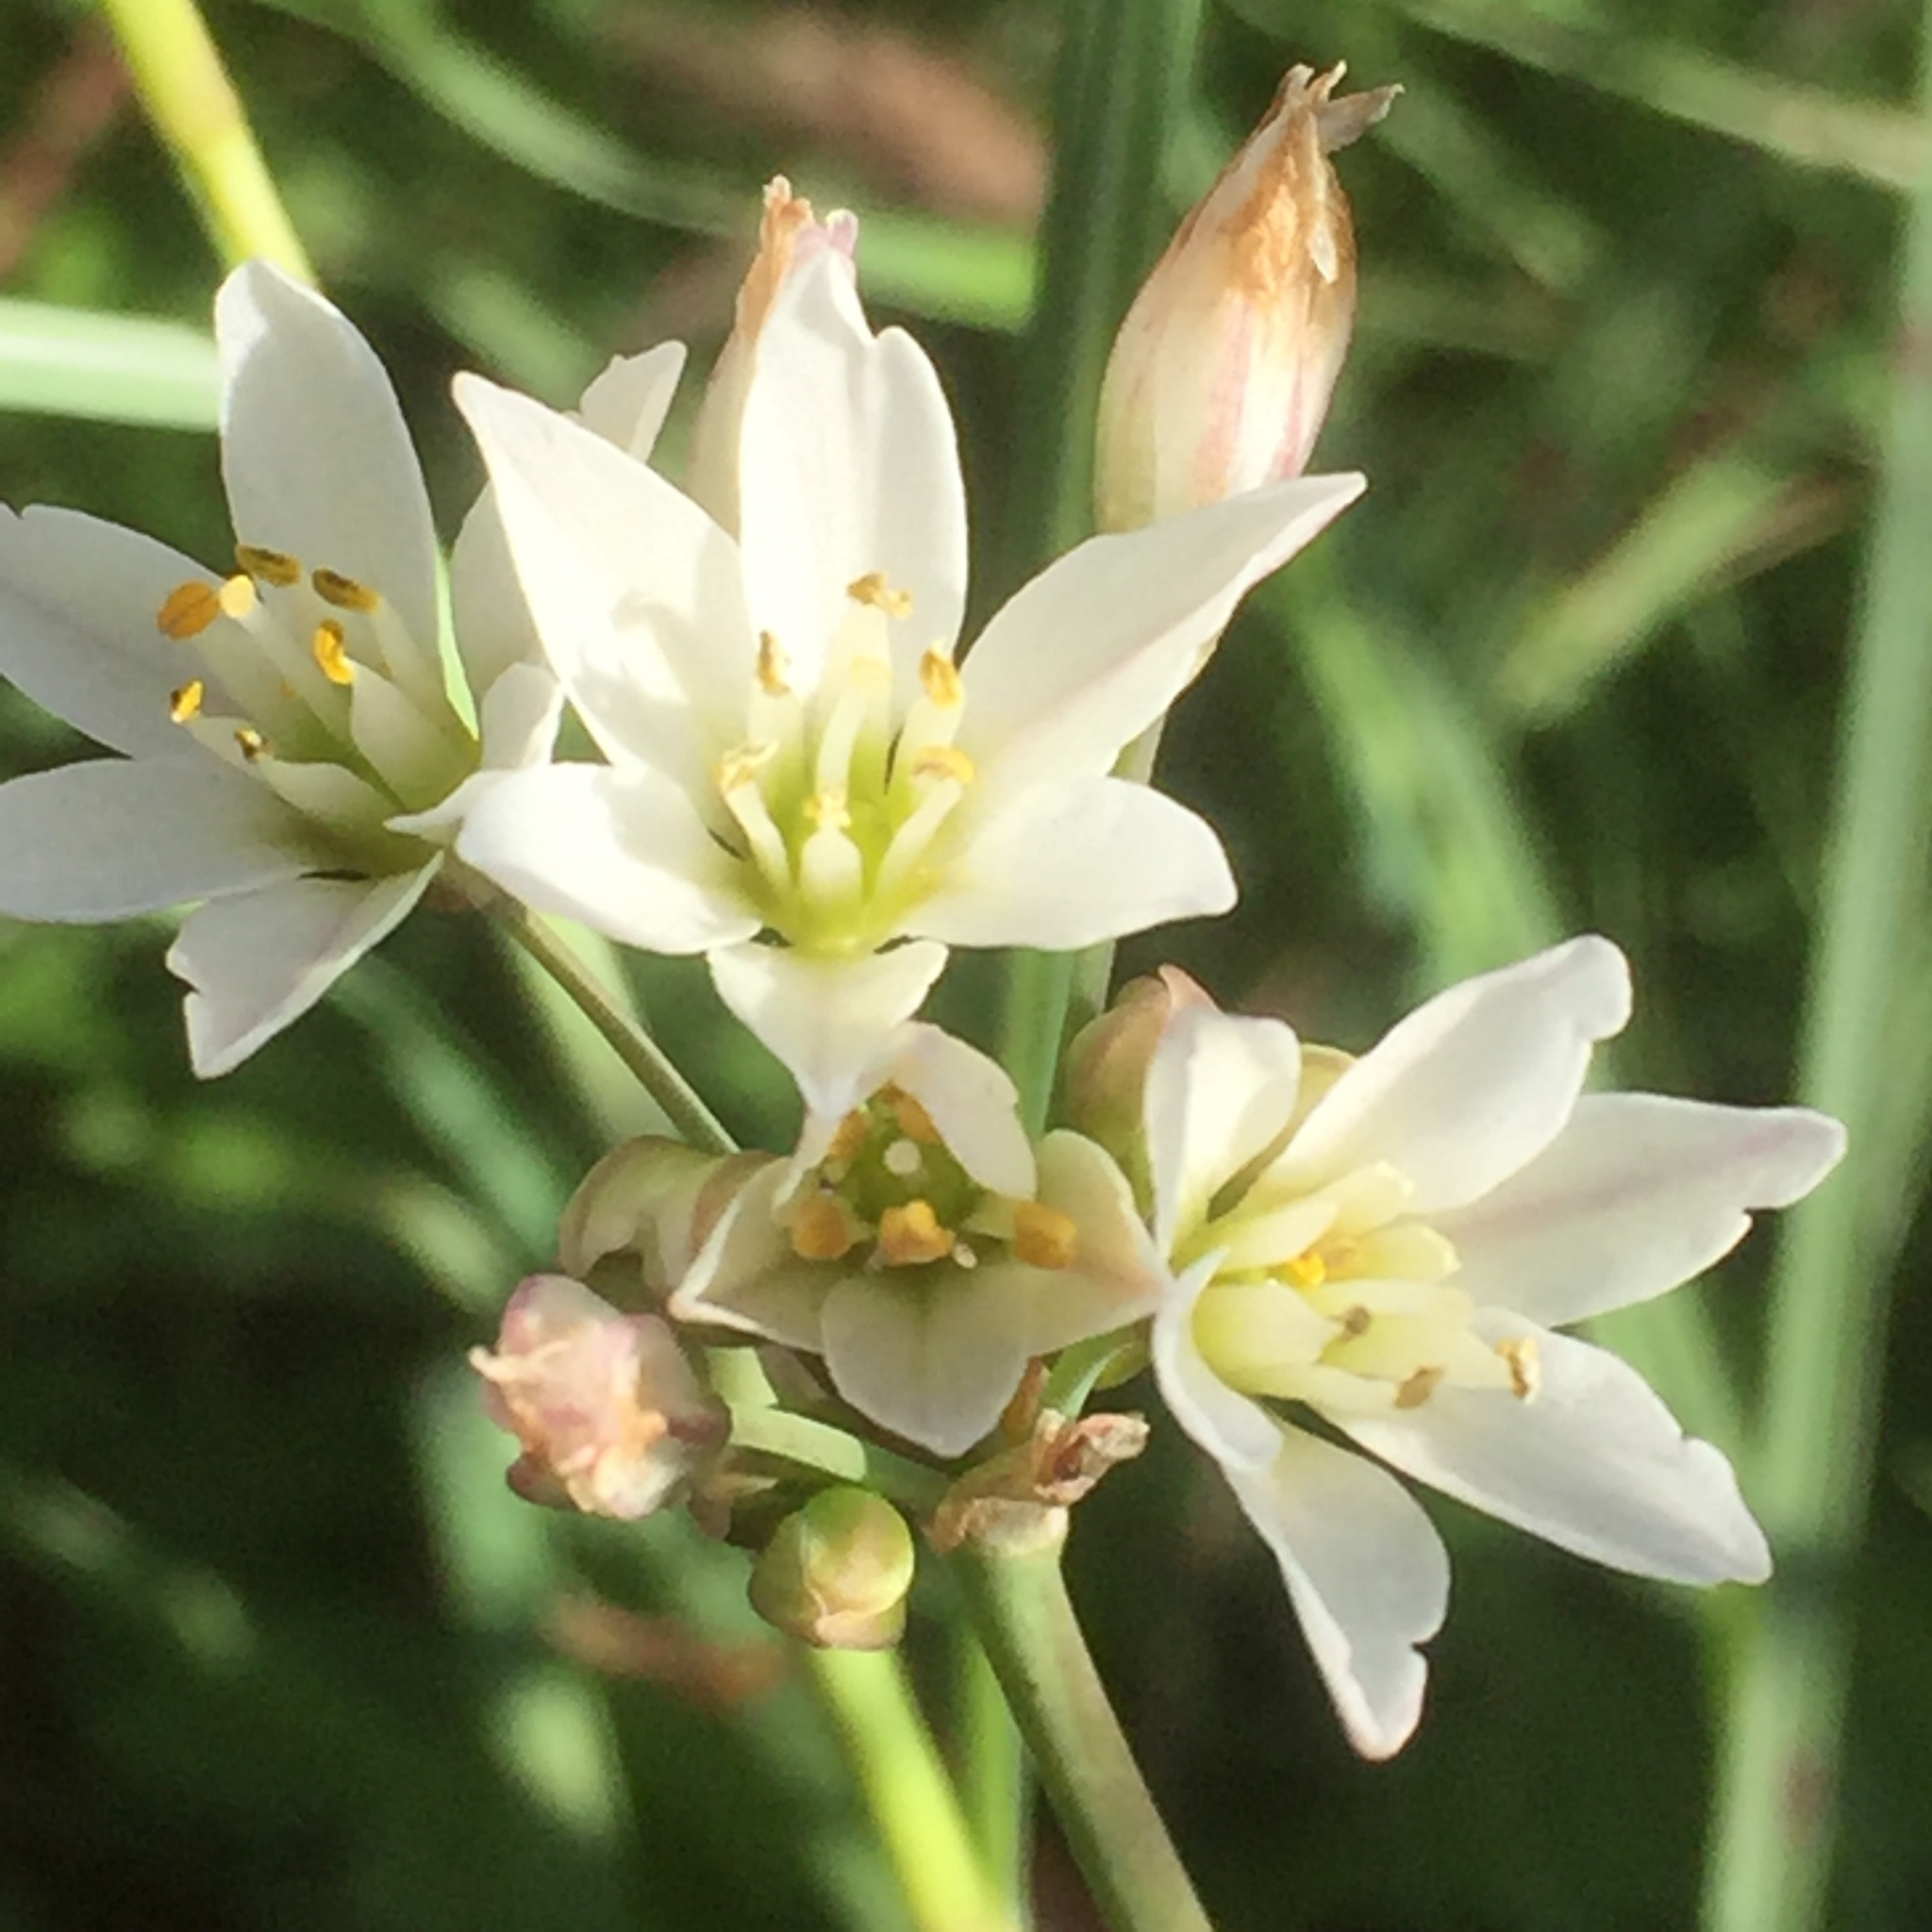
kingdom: Plantae
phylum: Tracheophyta
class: Liliopsida
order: Asparagales
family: Amaryllidaceae
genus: Nothoscordum
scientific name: Nothoscordum gracile
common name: Slender false garlic
